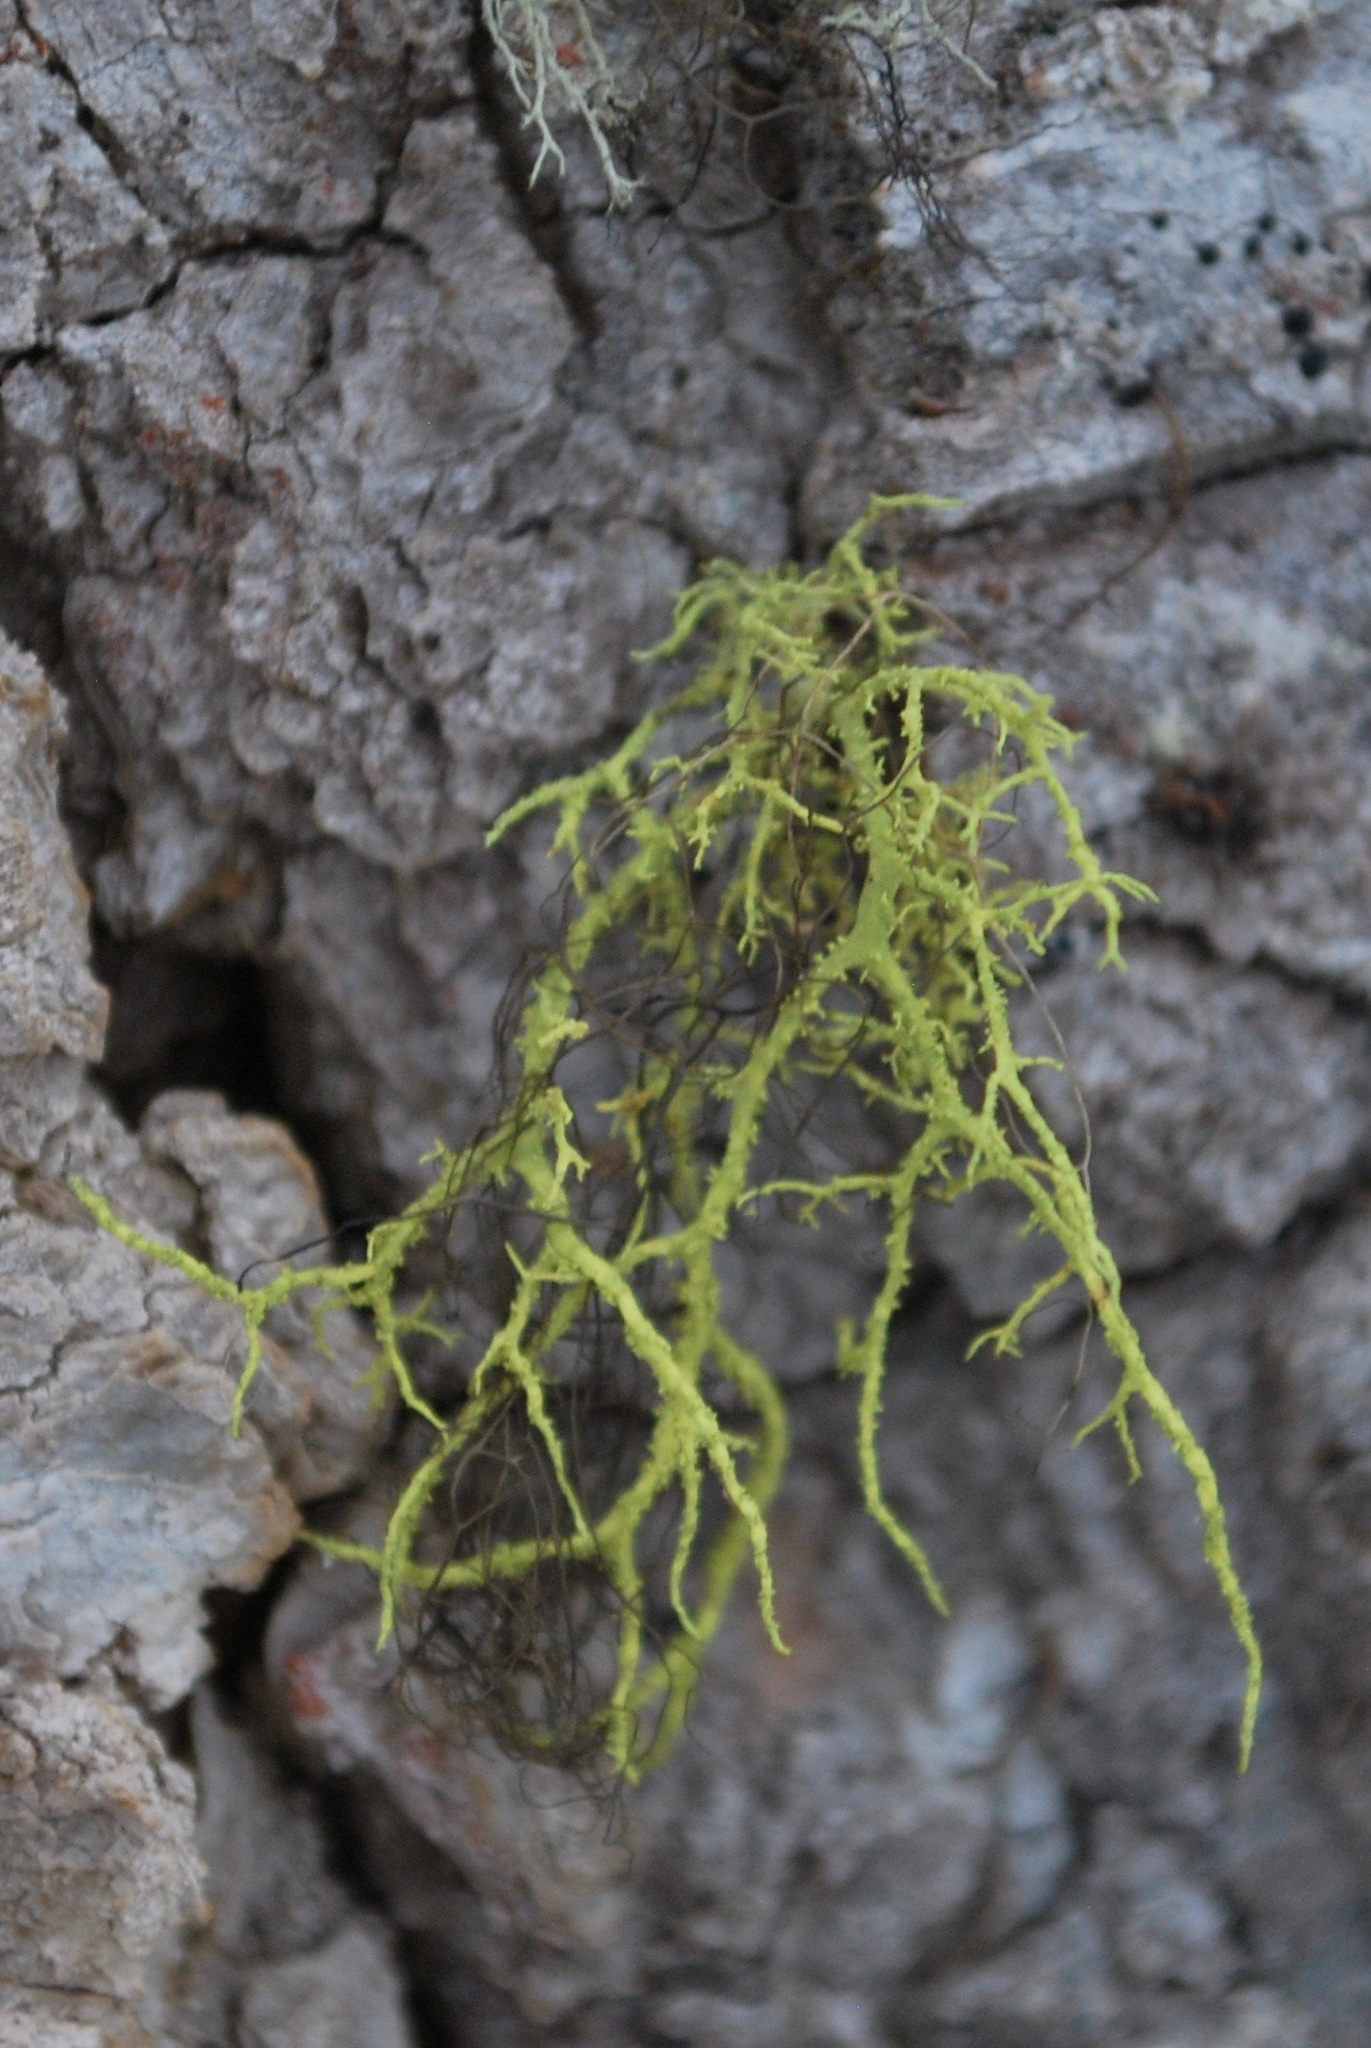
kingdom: Fungi
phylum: Ascomycota
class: Lecanoromycetes
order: Lecanorales
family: Parmeliaceae
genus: Letharia
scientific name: Letharia vulpina
